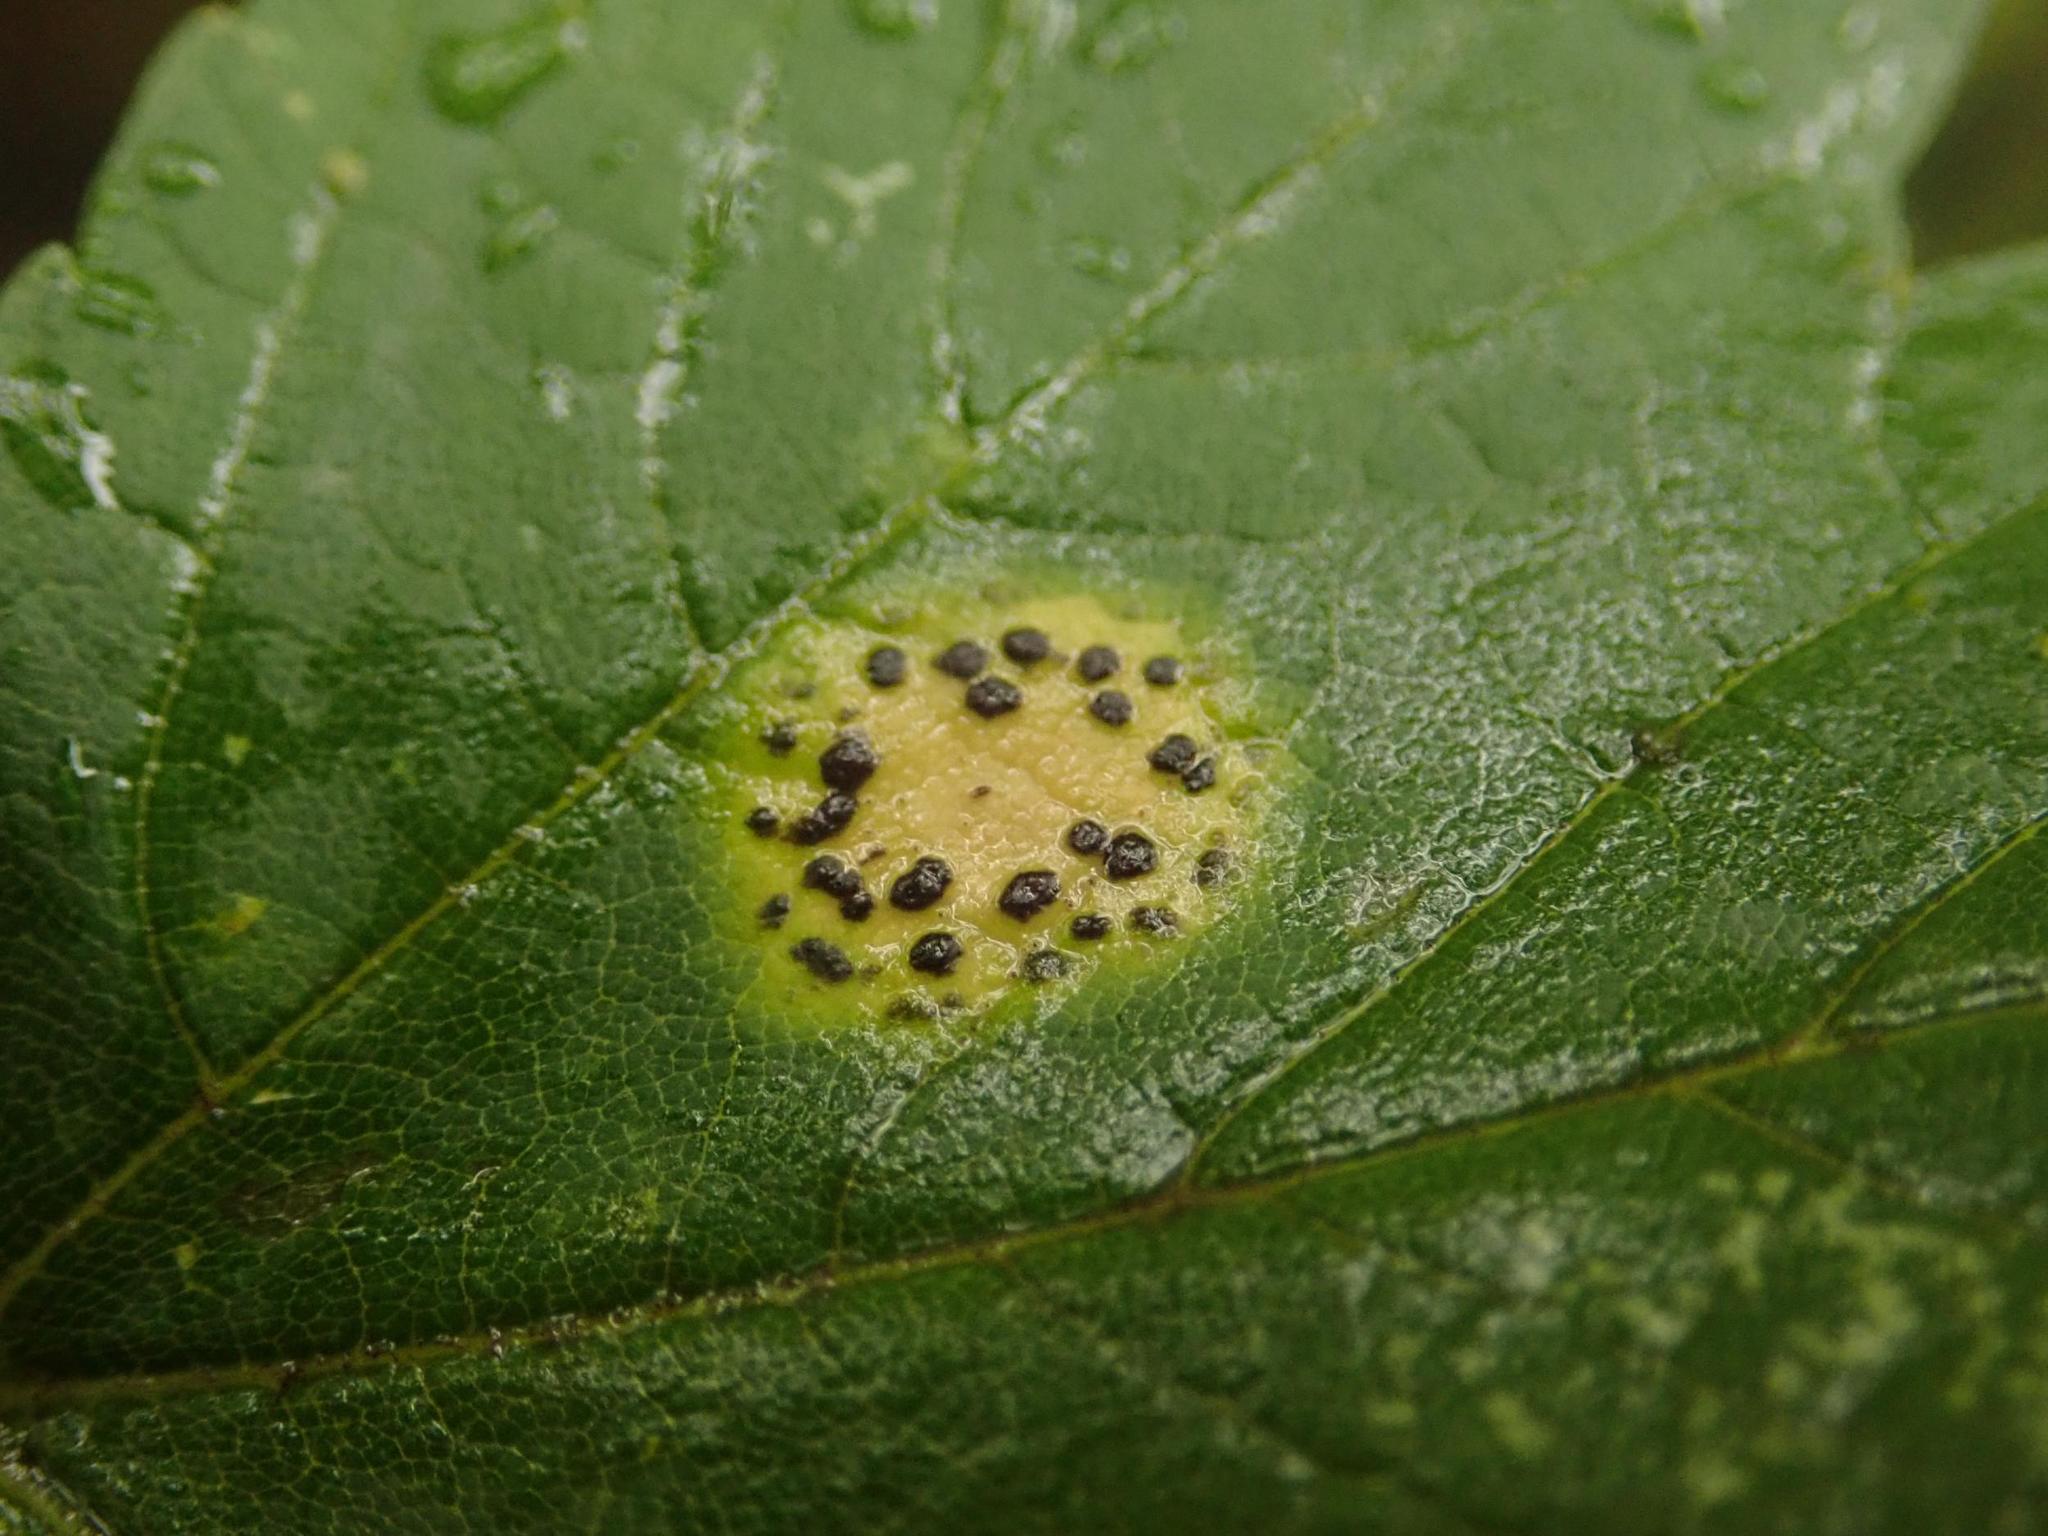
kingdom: Fungi
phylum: Ascomycota
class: Leotiomycetes
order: Rhytismatales
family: Rhytismataceae
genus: Rhytisma
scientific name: Rhytisma punctatum
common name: Speckled tar spot
